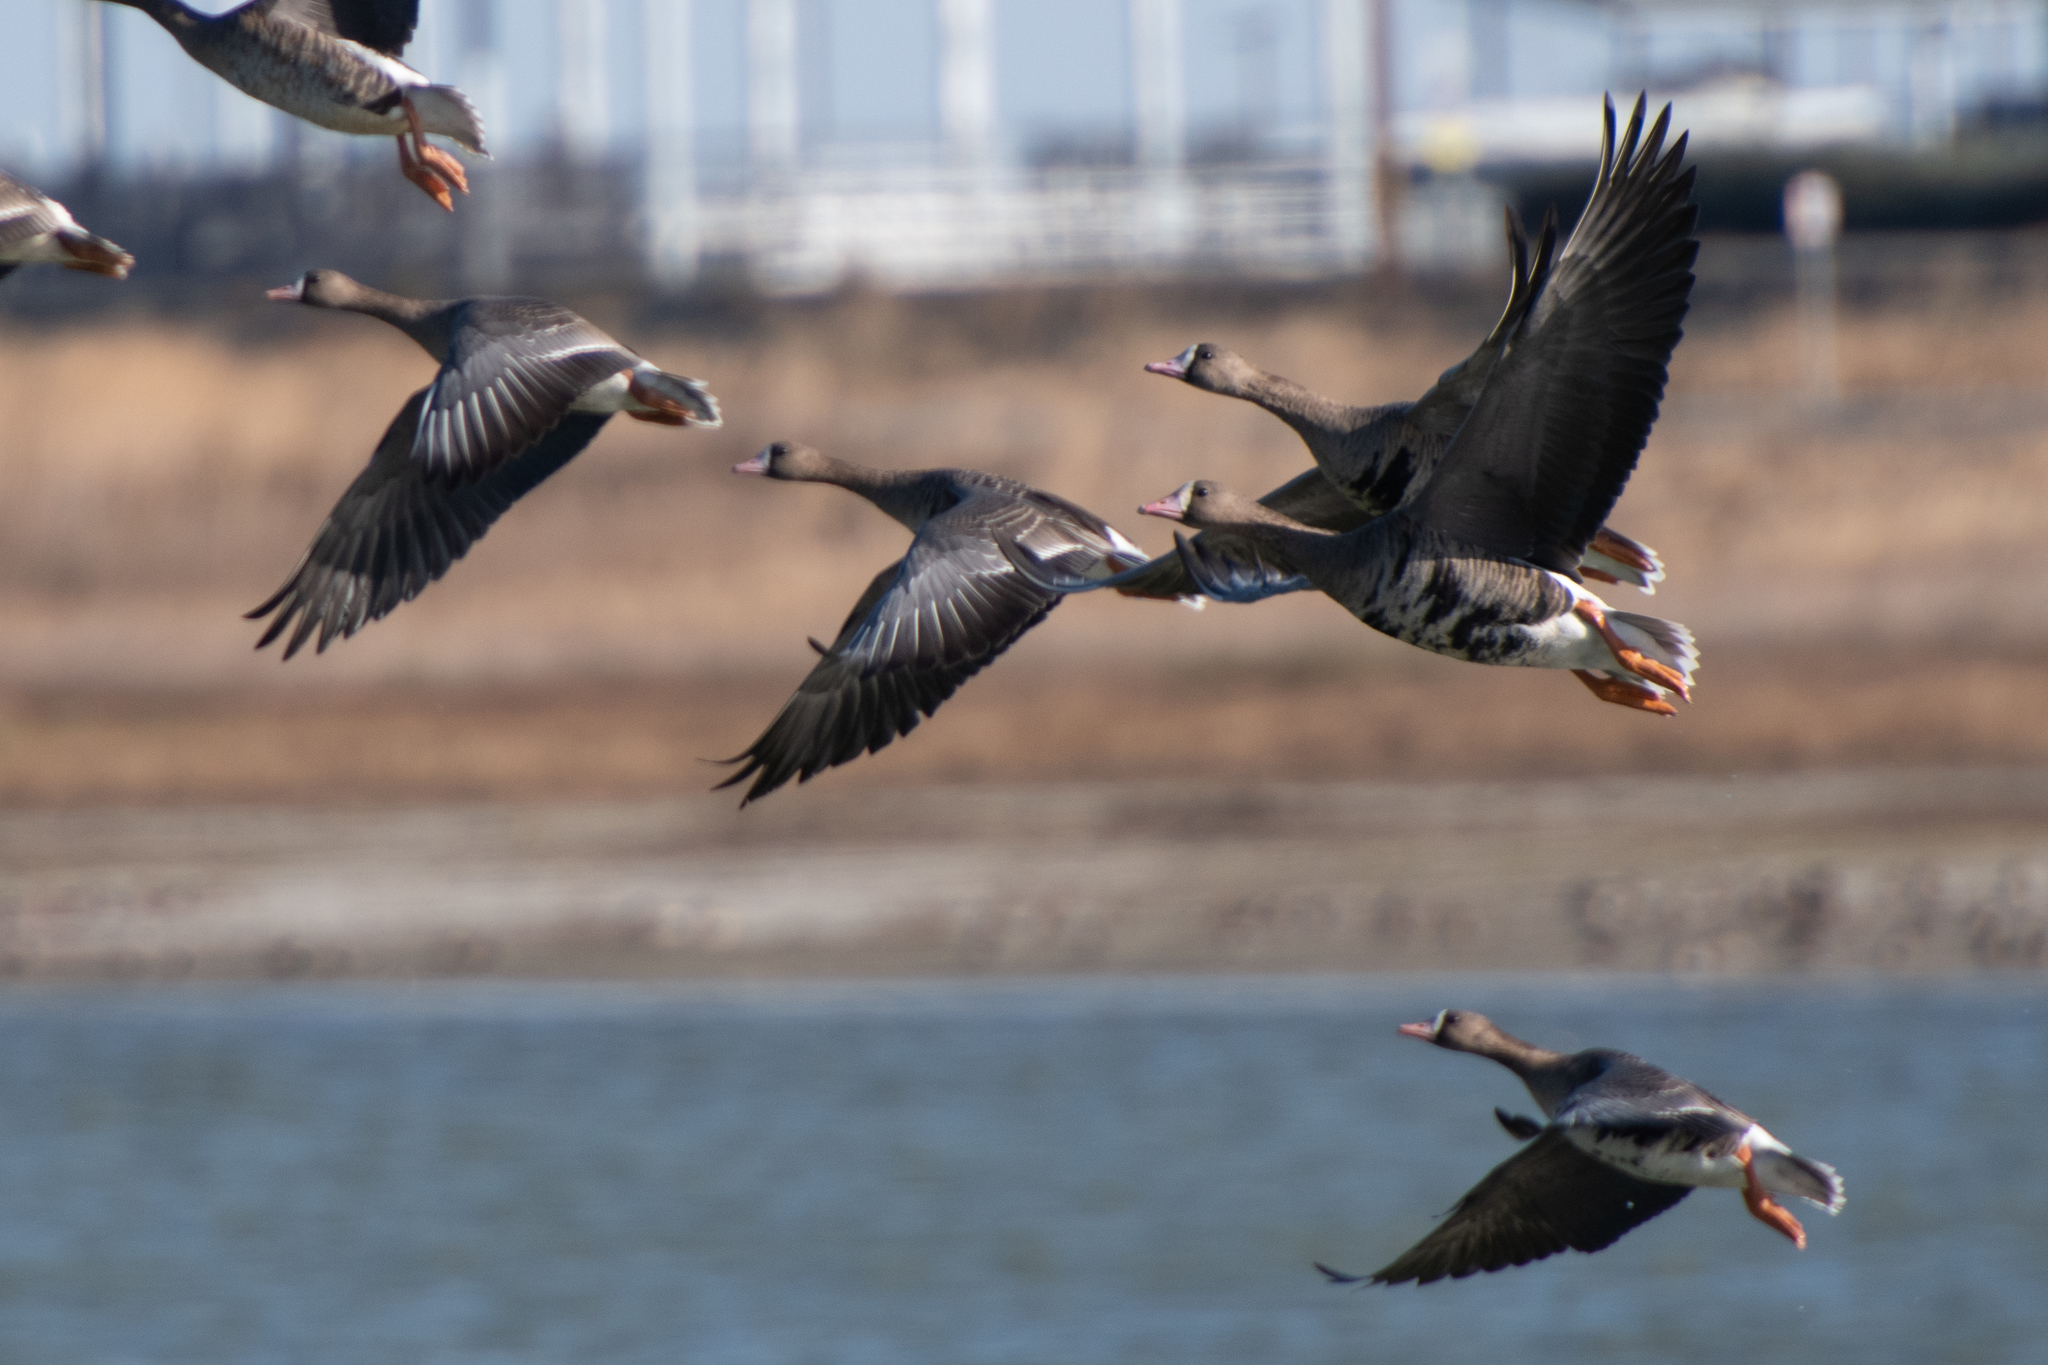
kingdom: Animalia
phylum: Chordata
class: Aves
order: Anseriformes
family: Anatidae
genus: Anser
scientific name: Anser albifrons
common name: Greater white-fronted goose
